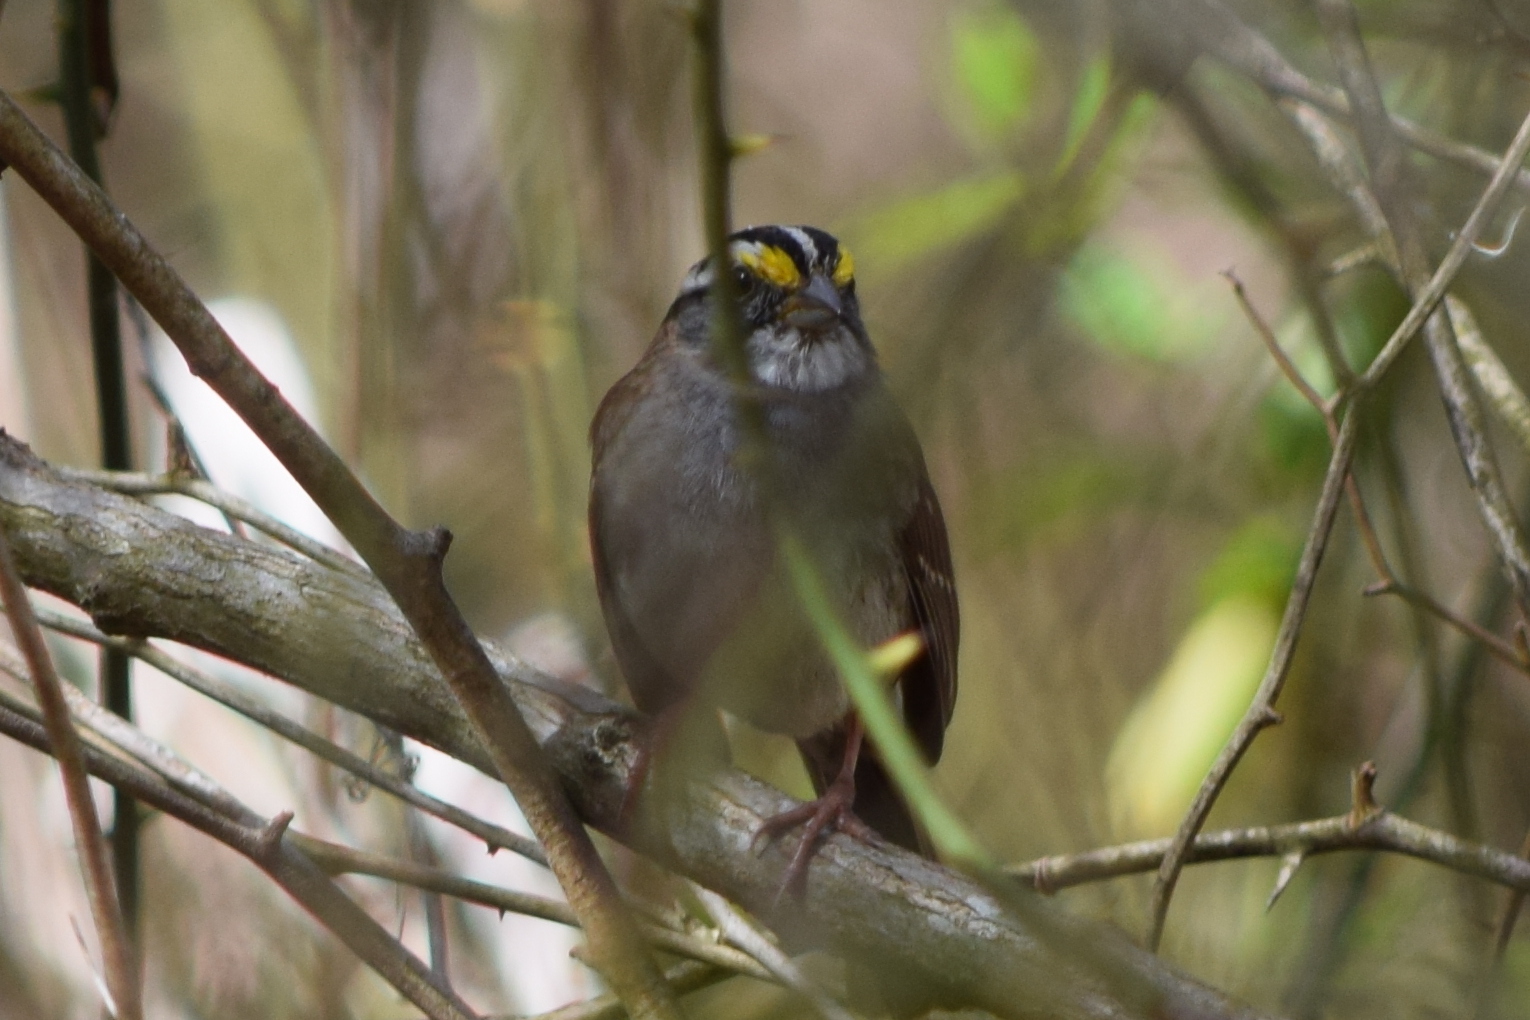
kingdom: Animalia
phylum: Chordata
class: Aves
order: Passeriformes
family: Passerellidae
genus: Zonotrichia
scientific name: Zonotrichia albicollis
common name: White-throated sparrow
